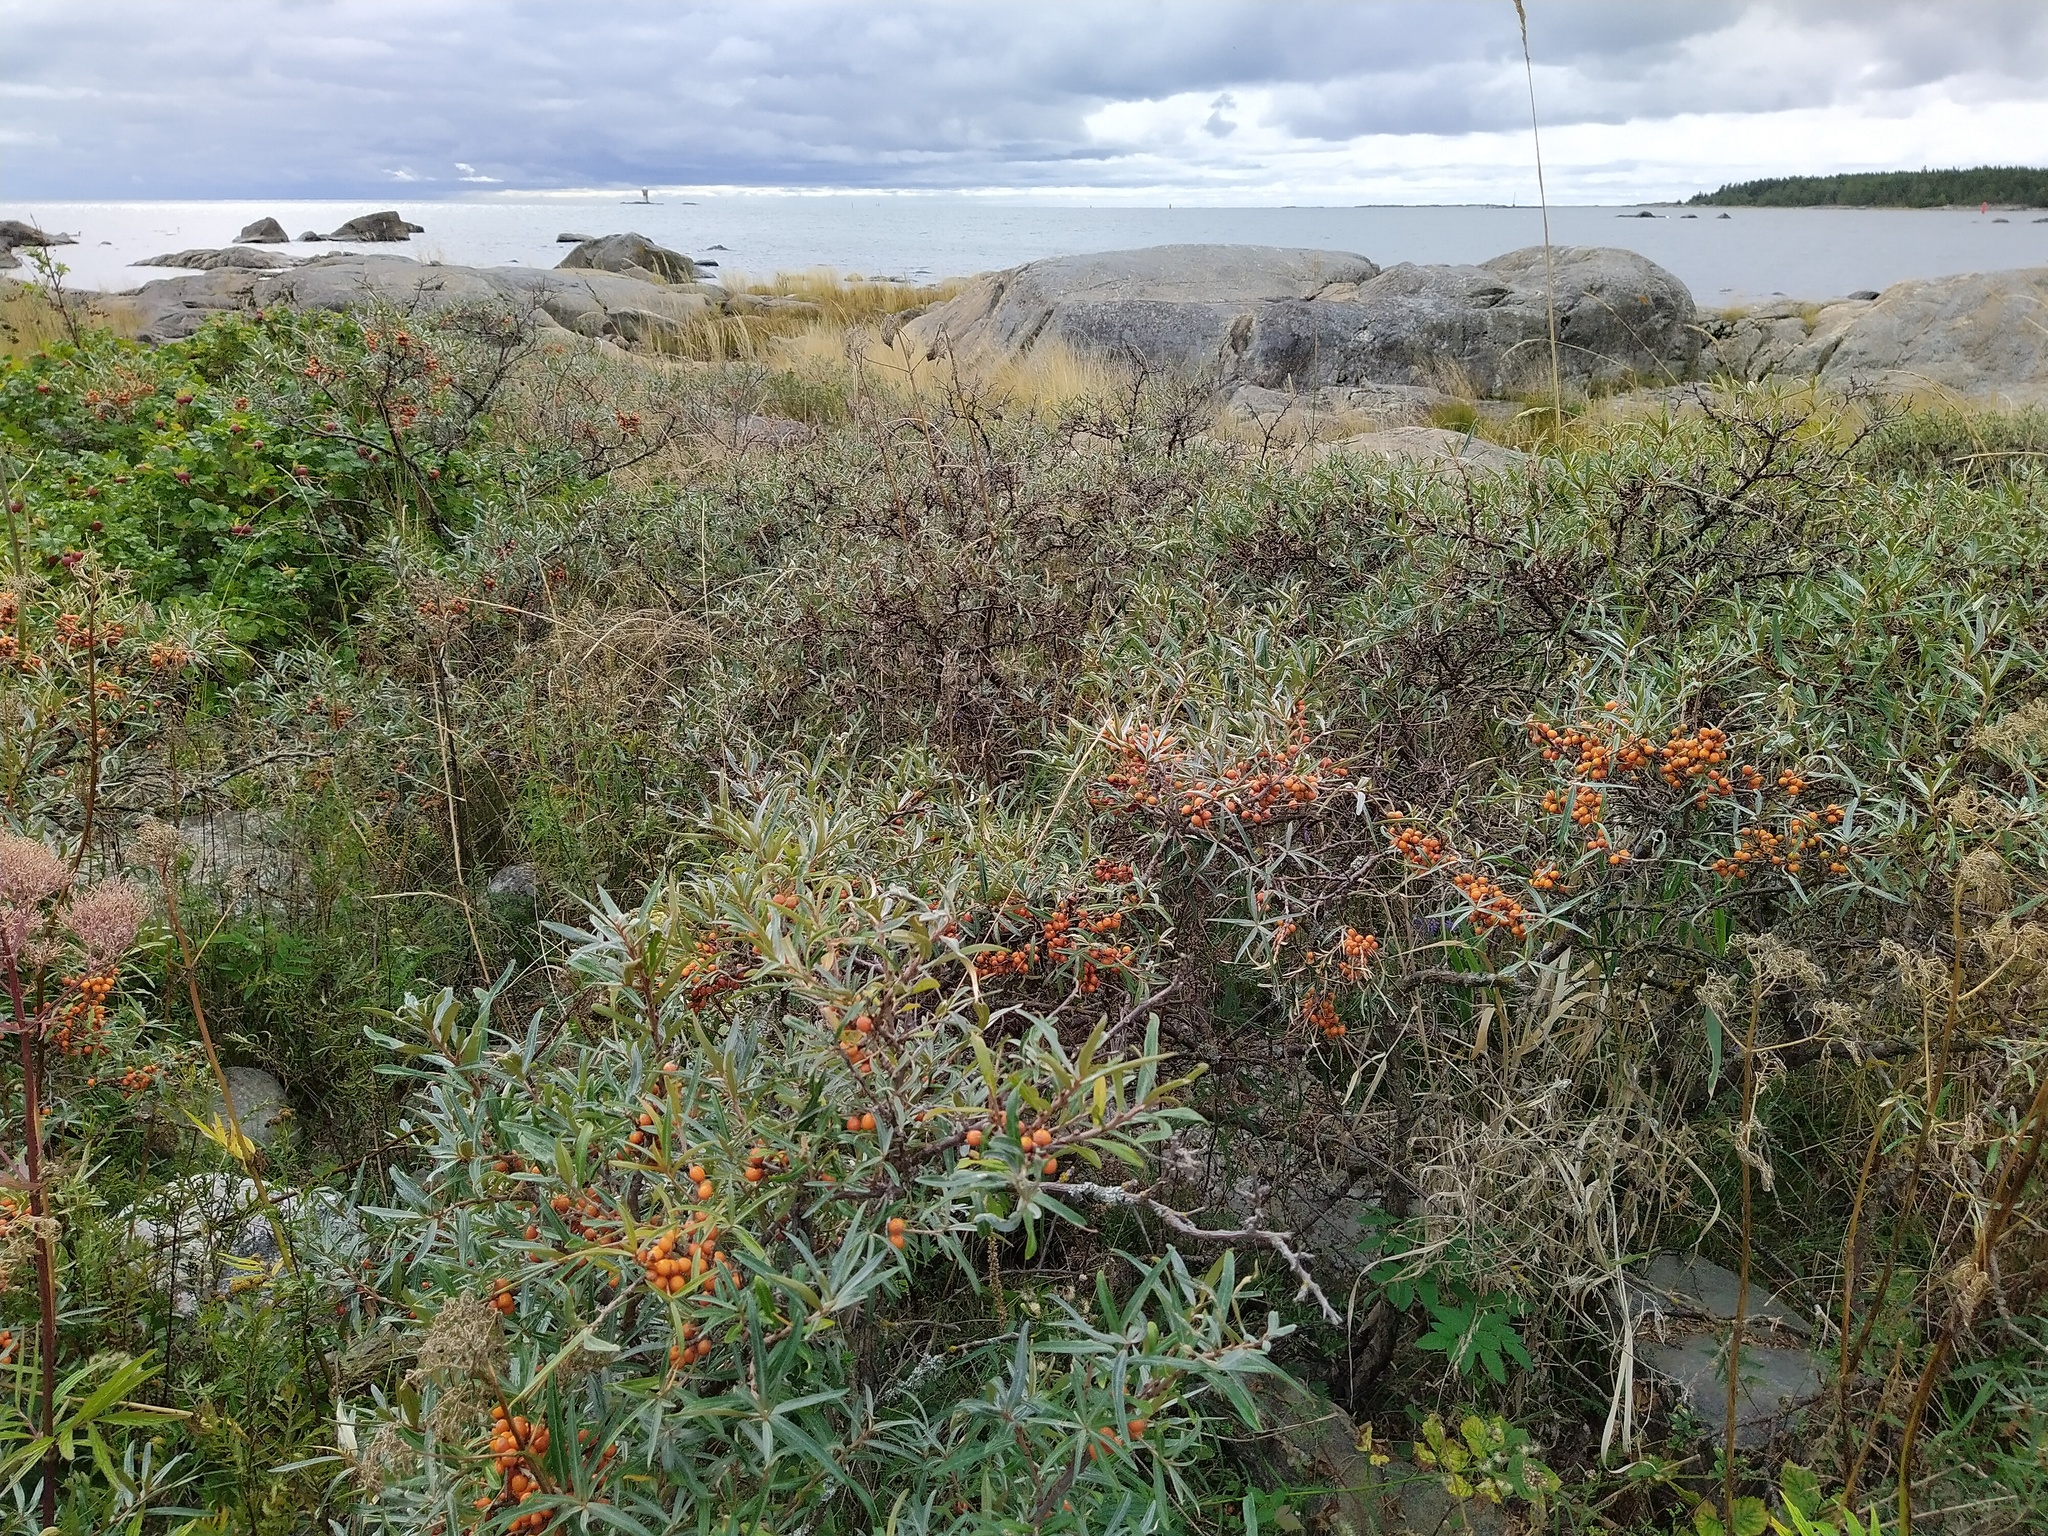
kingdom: Plantae
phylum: Tracheophyta
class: Magnoliopsida
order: Rosales
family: Elaeagnaceae
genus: Hippophae
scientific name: Hippophae rhamnoides
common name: Sea-buckthorn
